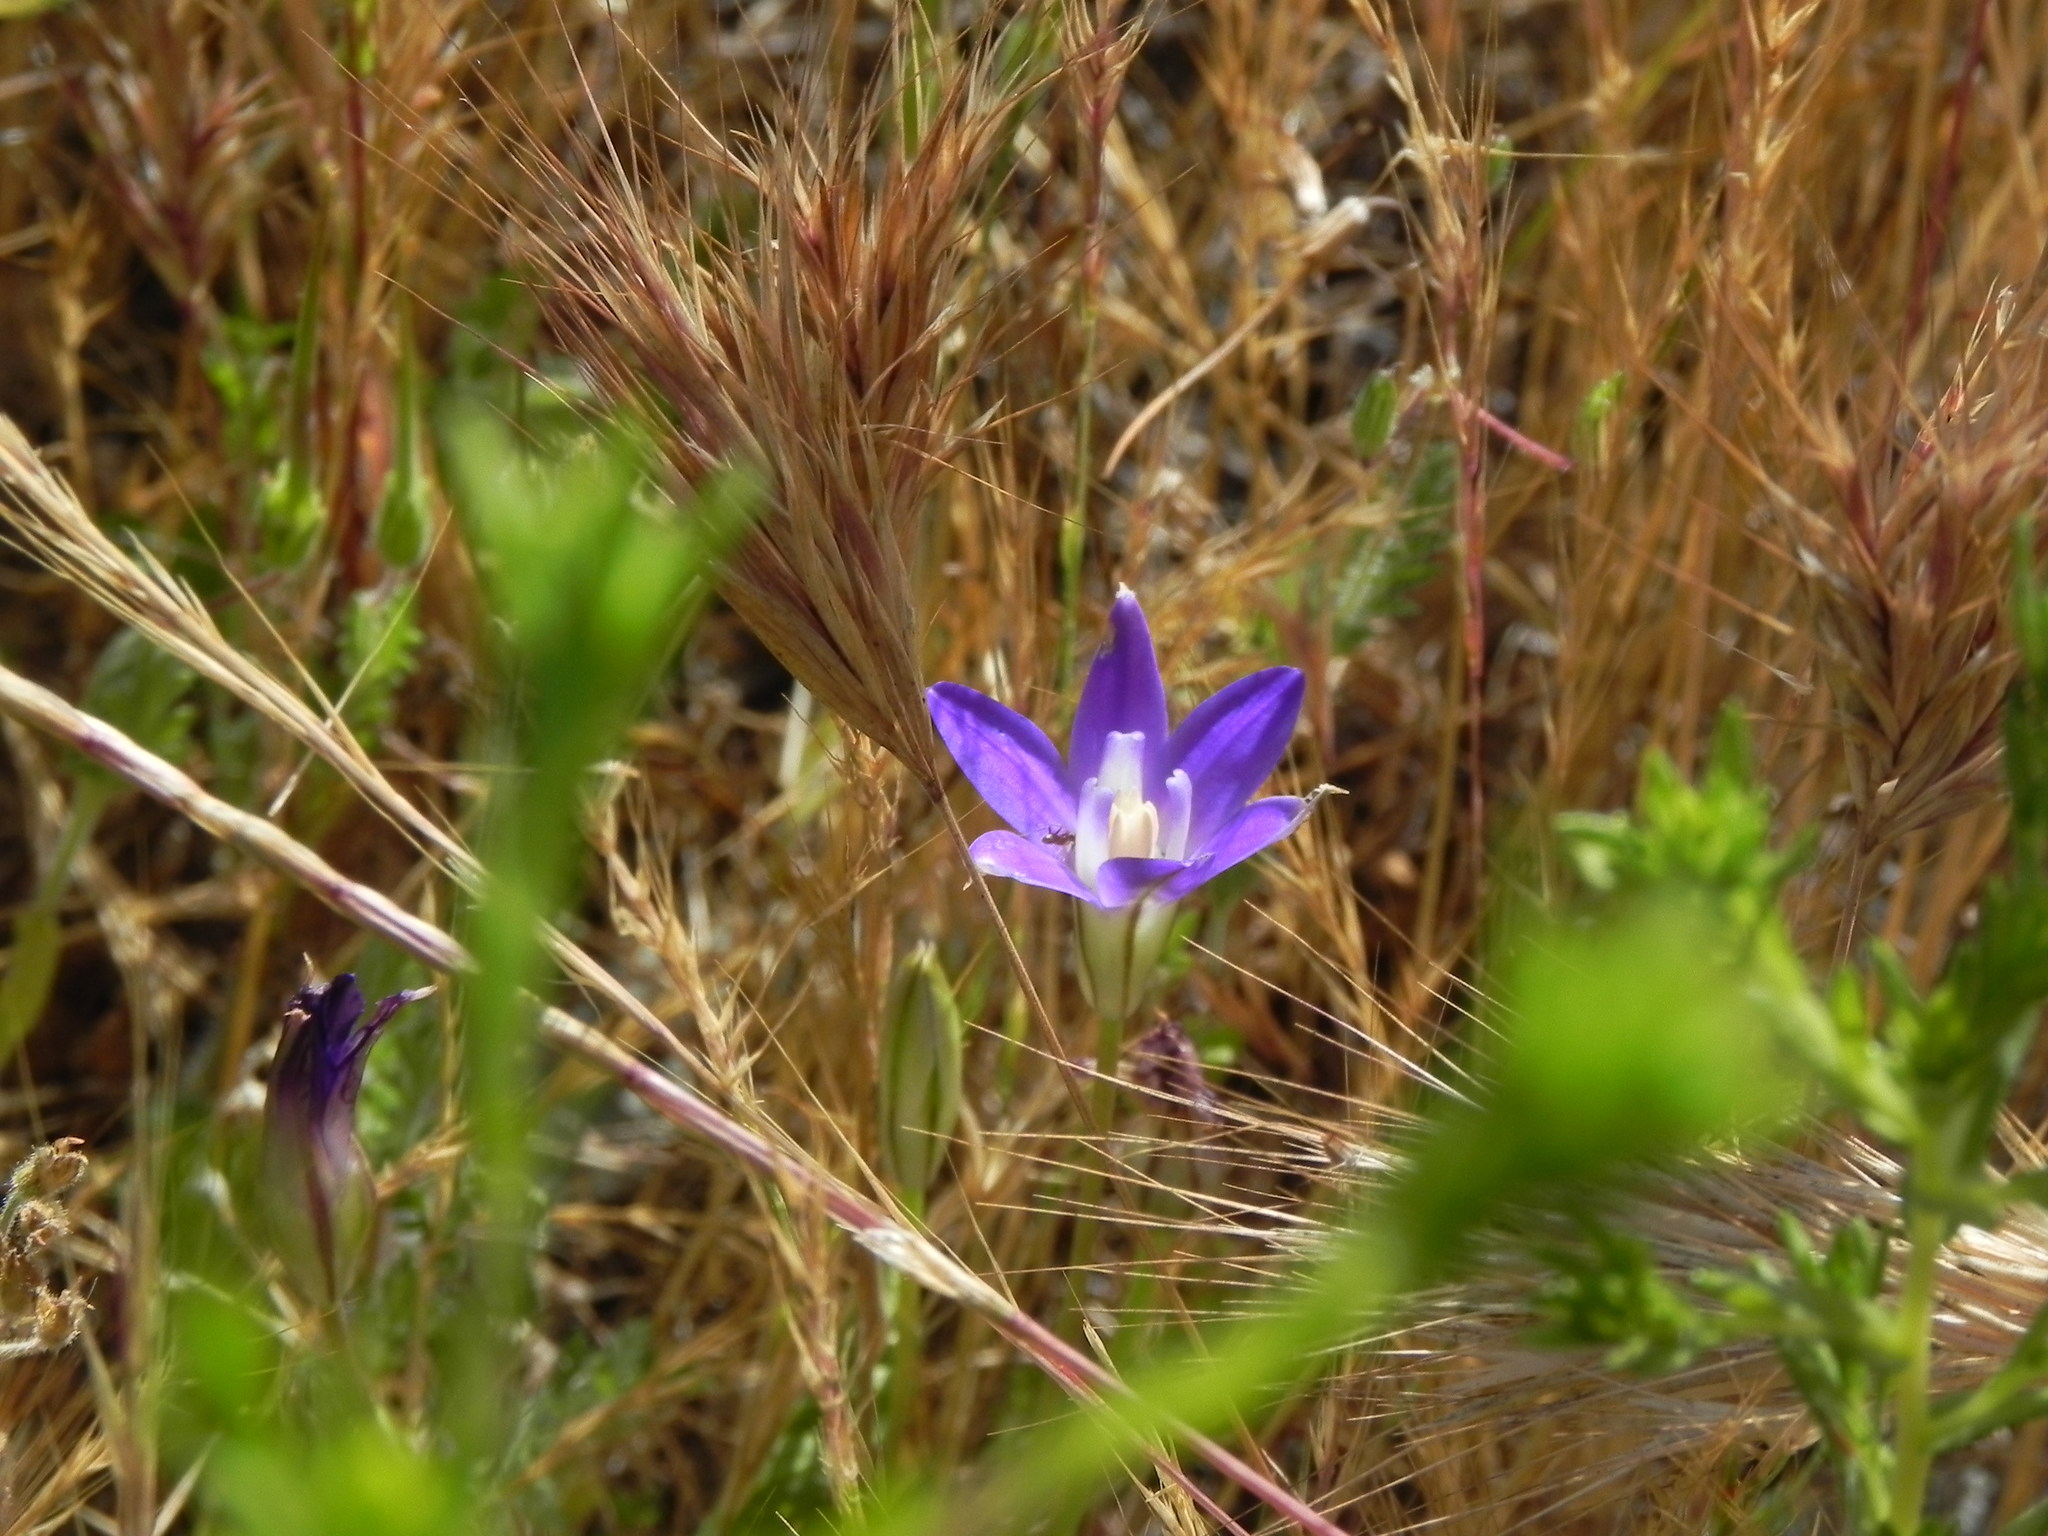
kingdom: Plantae
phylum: Tracheophyta
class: Liliopsida
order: Asparagales
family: Asparagaceae
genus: Brodiaea
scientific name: Brodiaea terrestris
